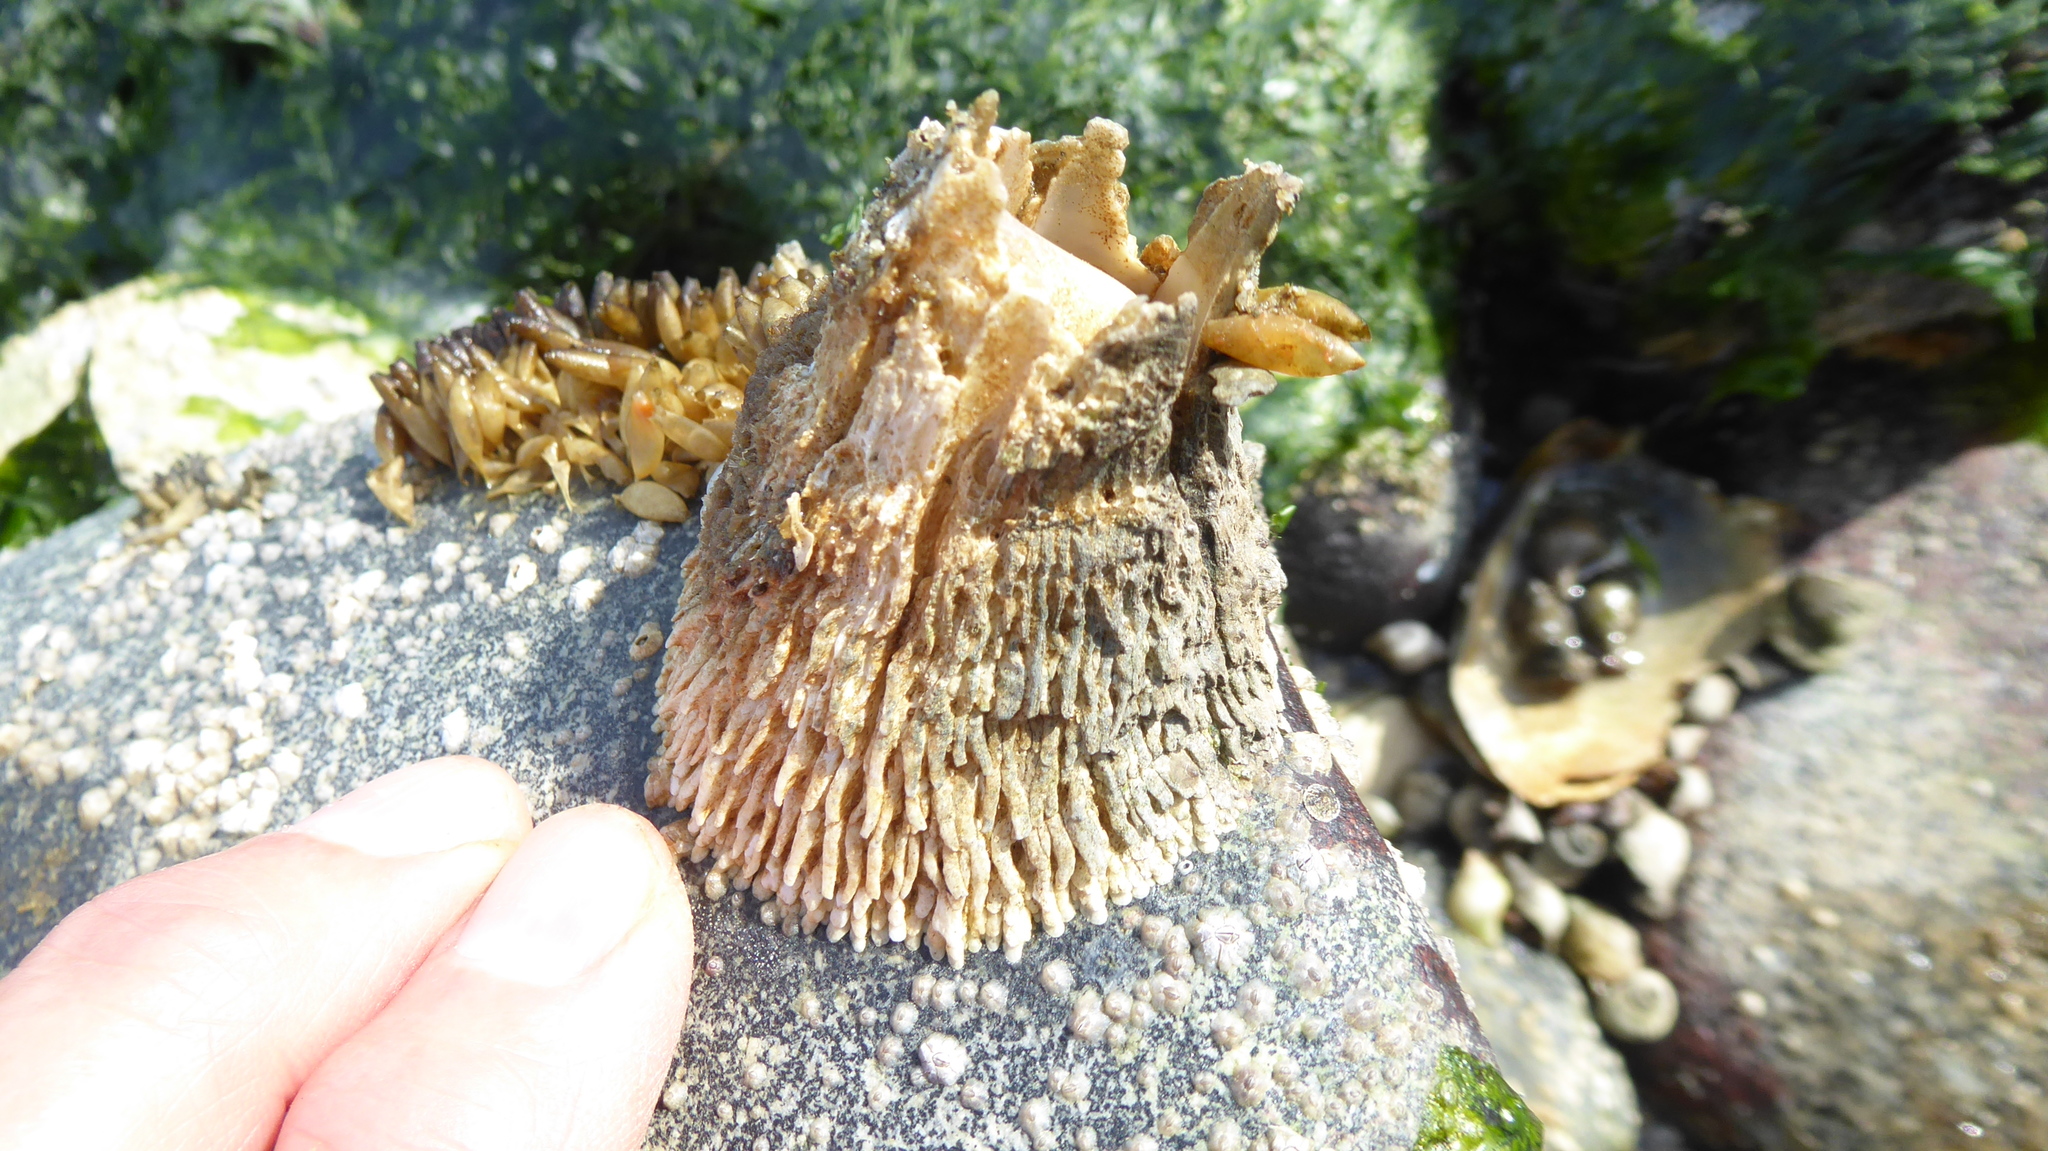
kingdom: Animalia
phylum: Arthropoda
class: Maxillopoda
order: Sessilia
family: Archaeobalanidae
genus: Semibalanus
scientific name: Semibalanus cariosus
